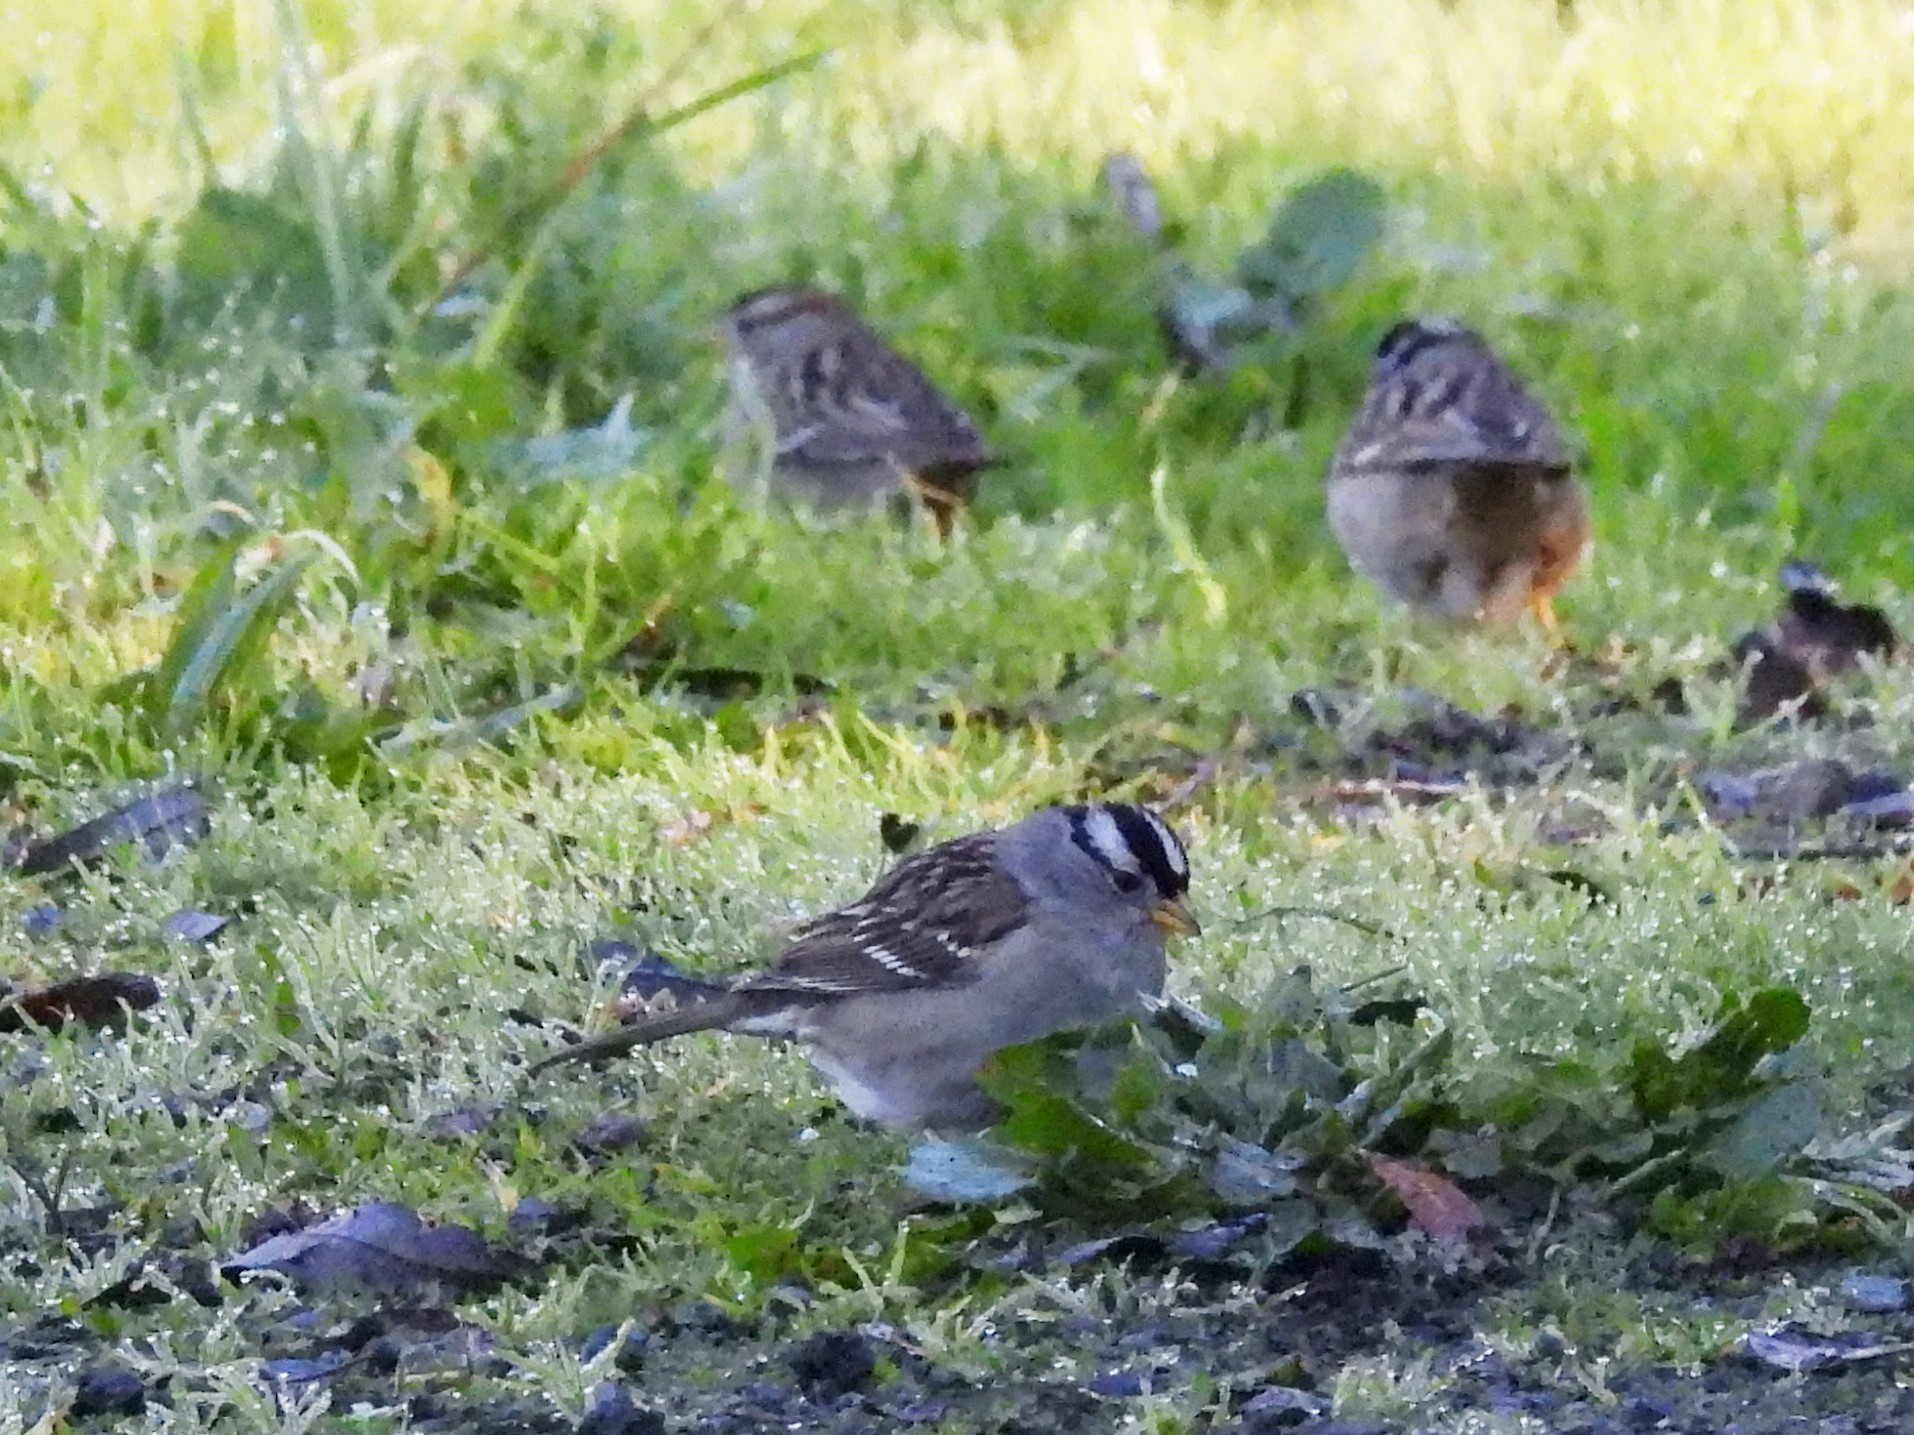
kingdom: Animalia
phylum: Chordata
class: Aves
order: Passeriformes
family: Passerellidae
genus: Zonotrichia
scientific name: Zonotrichia leucophrys
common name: White-crowned sparrow
